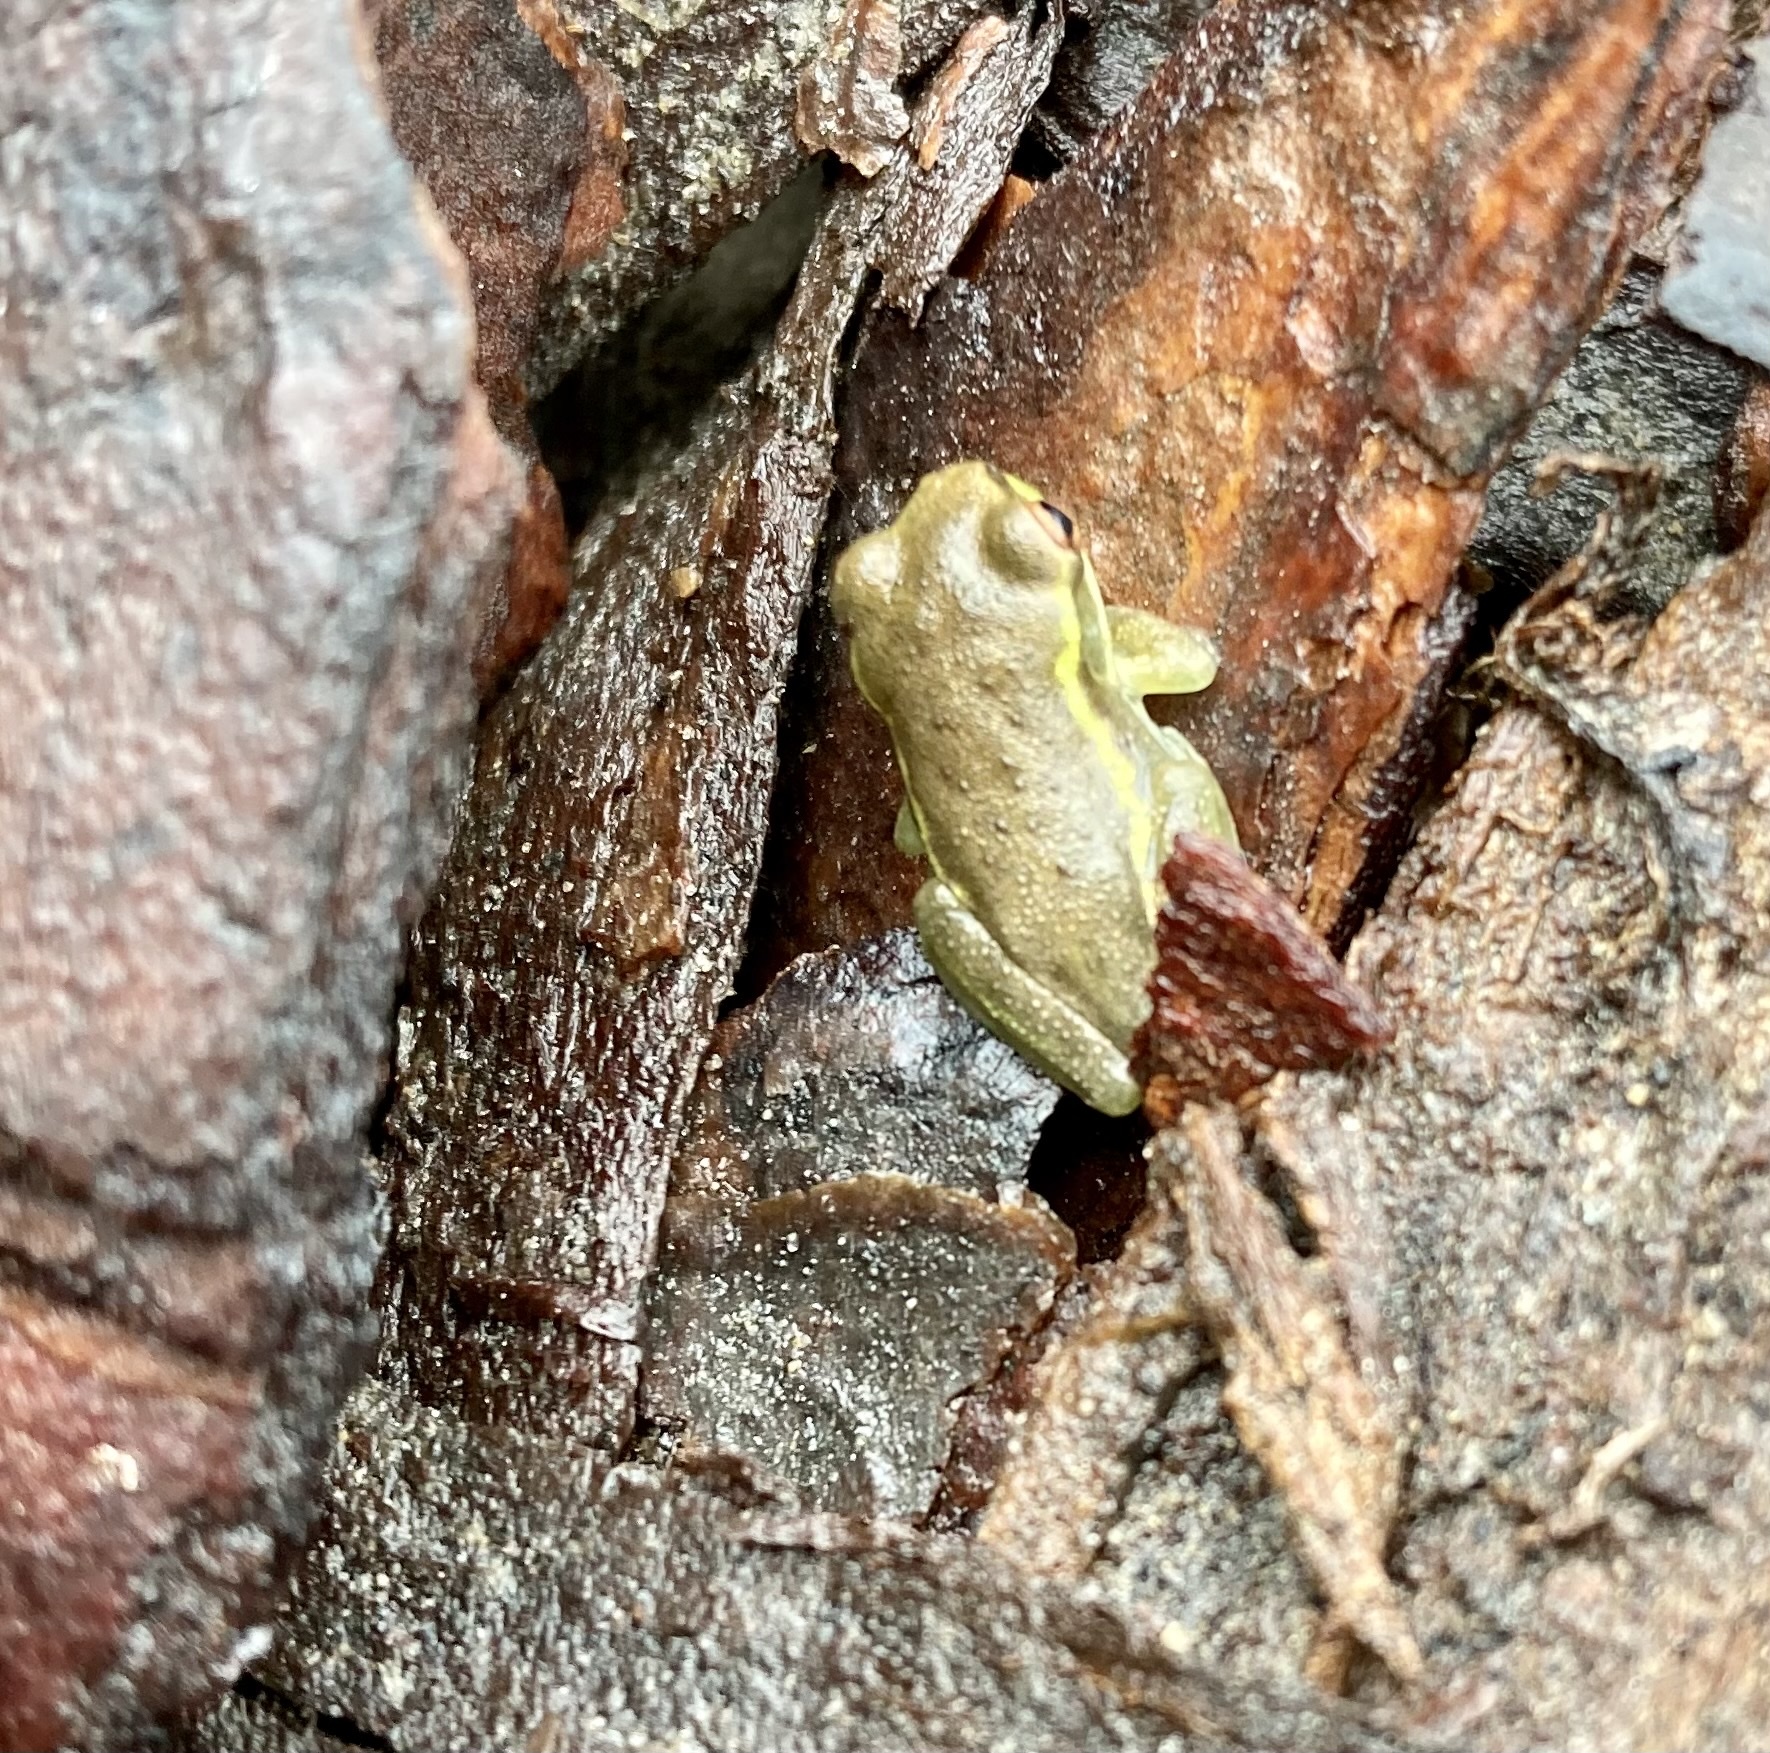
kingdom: Animalia
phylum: Chordata
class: Amphibia
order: Anura
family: Hylidae
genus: Osteopilus
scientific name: Osteopilus septentrionalis
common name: Cuban treefrog
